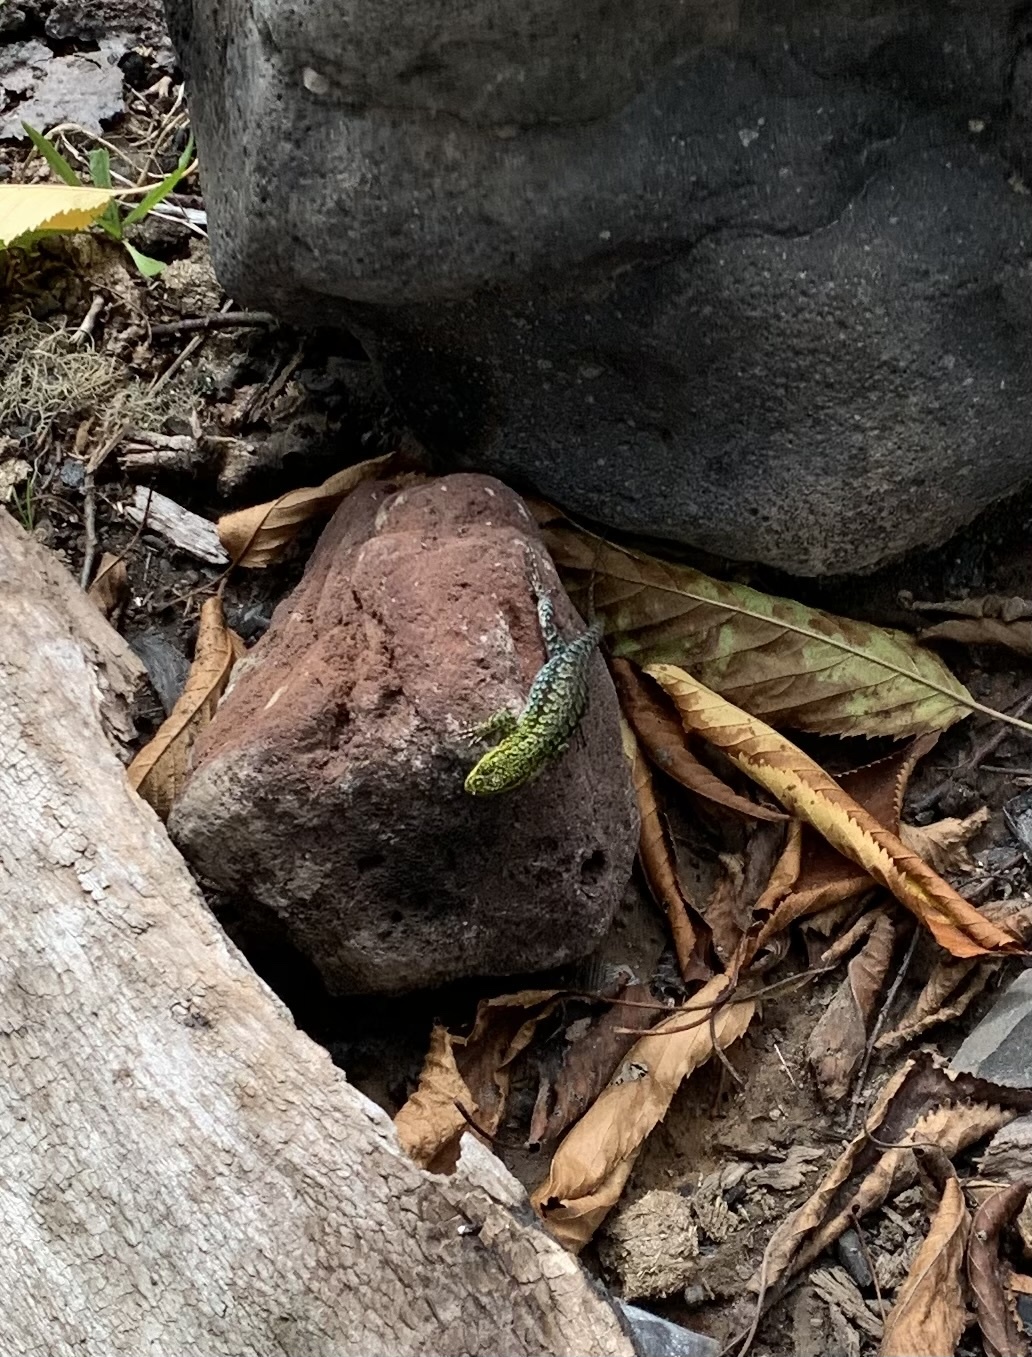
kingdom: Animalia
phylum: Chordata
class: Squamata
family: Liolaemidae
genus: Liolaemus
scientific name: Liolaemus tenuis
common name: Thin tree iguana
